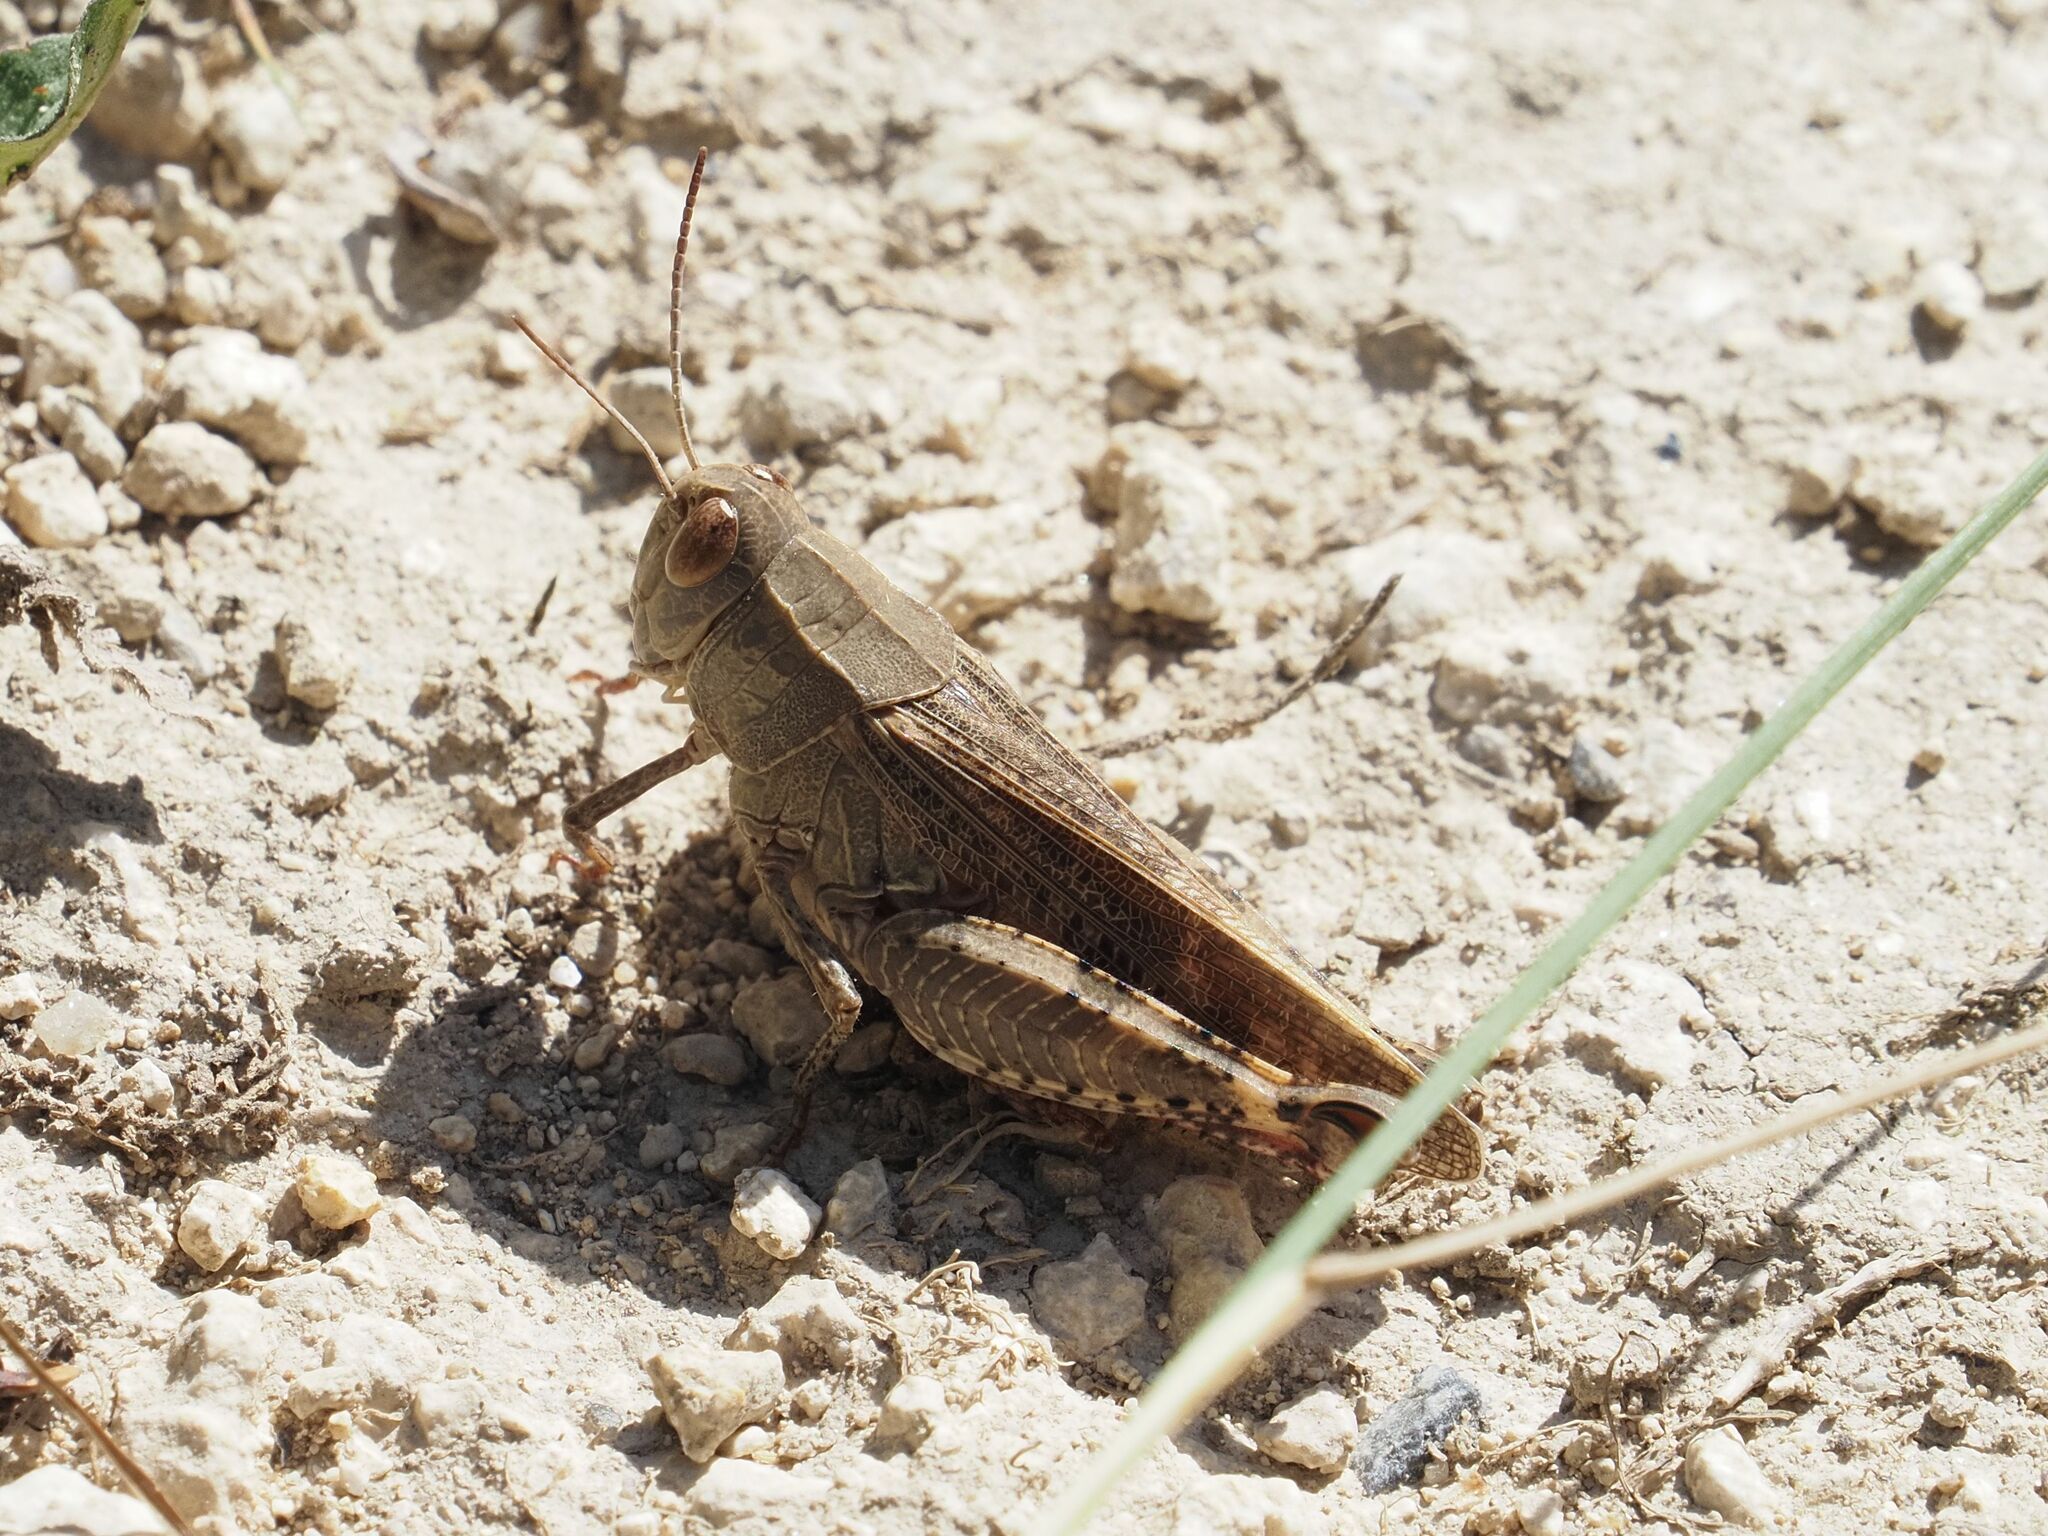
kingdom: Animalia
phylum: Arthropoda
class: Insecta
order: Orthoptera
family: Acrididae
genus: Calliptamus
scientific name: Calliptamus italicus
